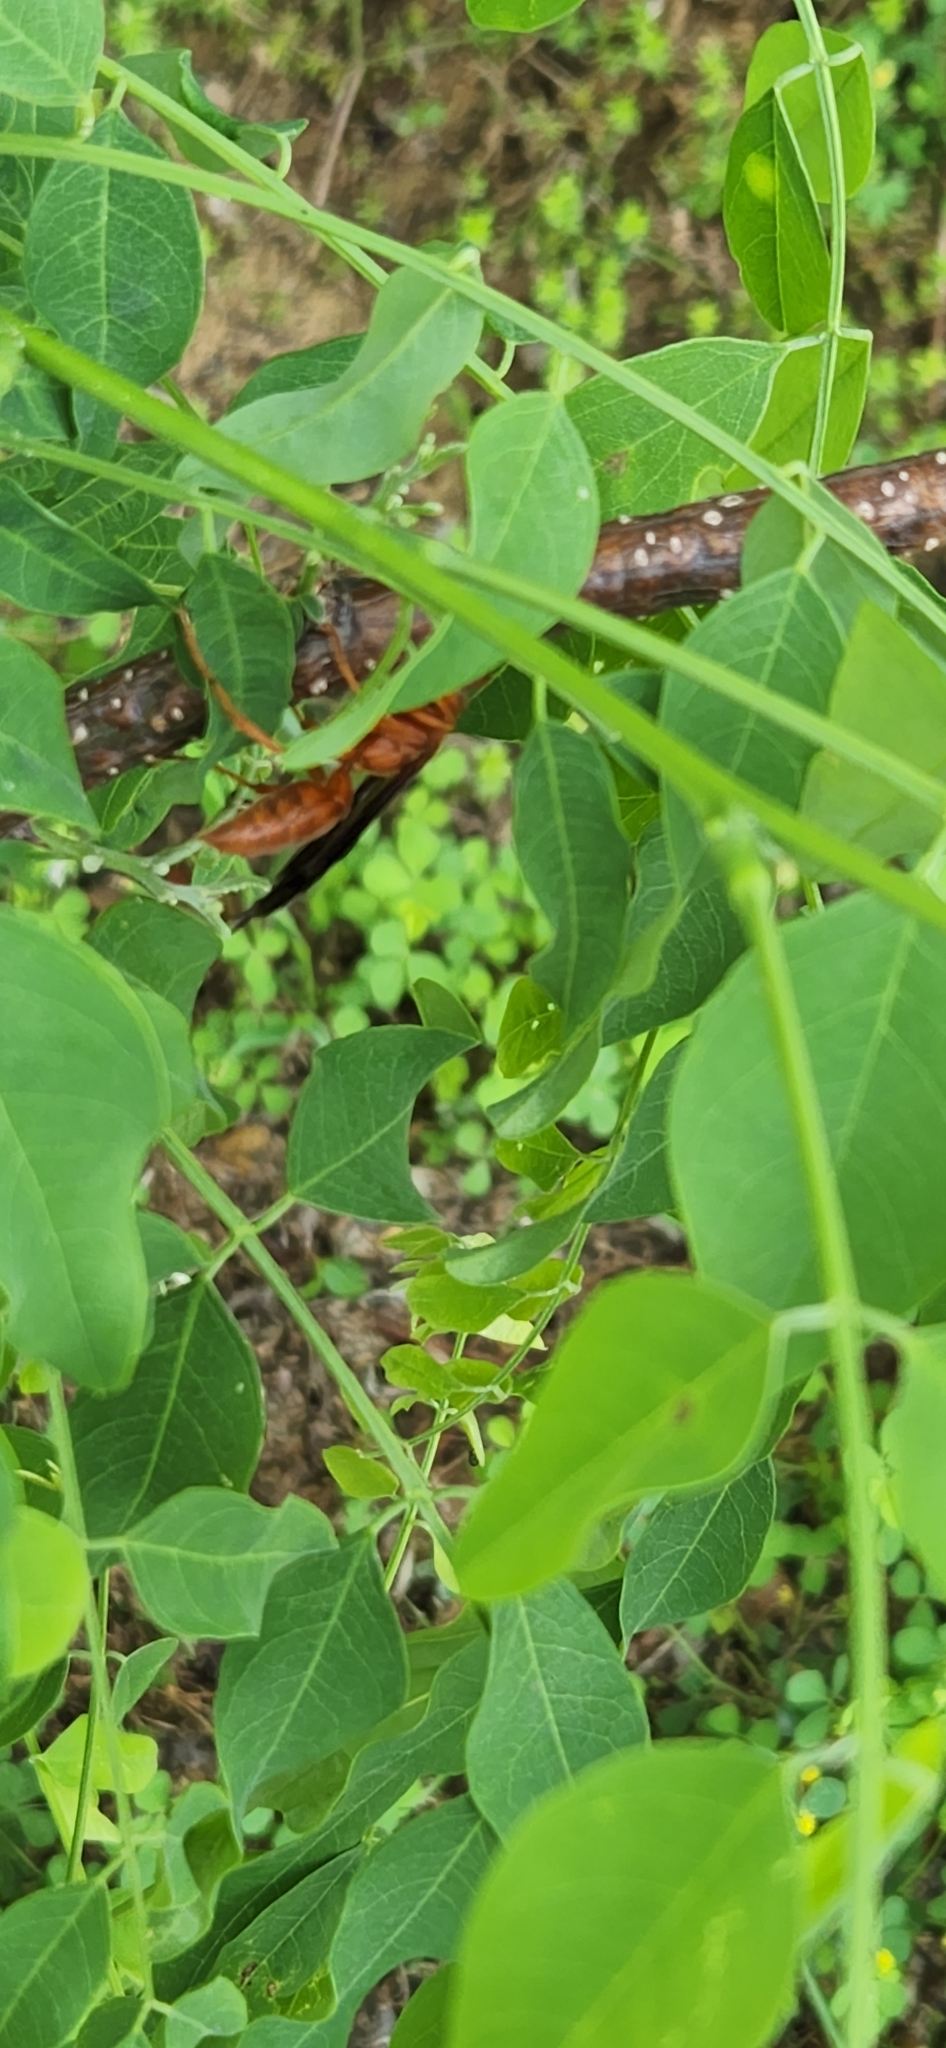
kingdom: Animalia
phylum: Arthropoda
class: Insecta
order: Hymenoptera
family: Vespidae
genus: Fuscopolistes
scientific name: Fuscopolistes
